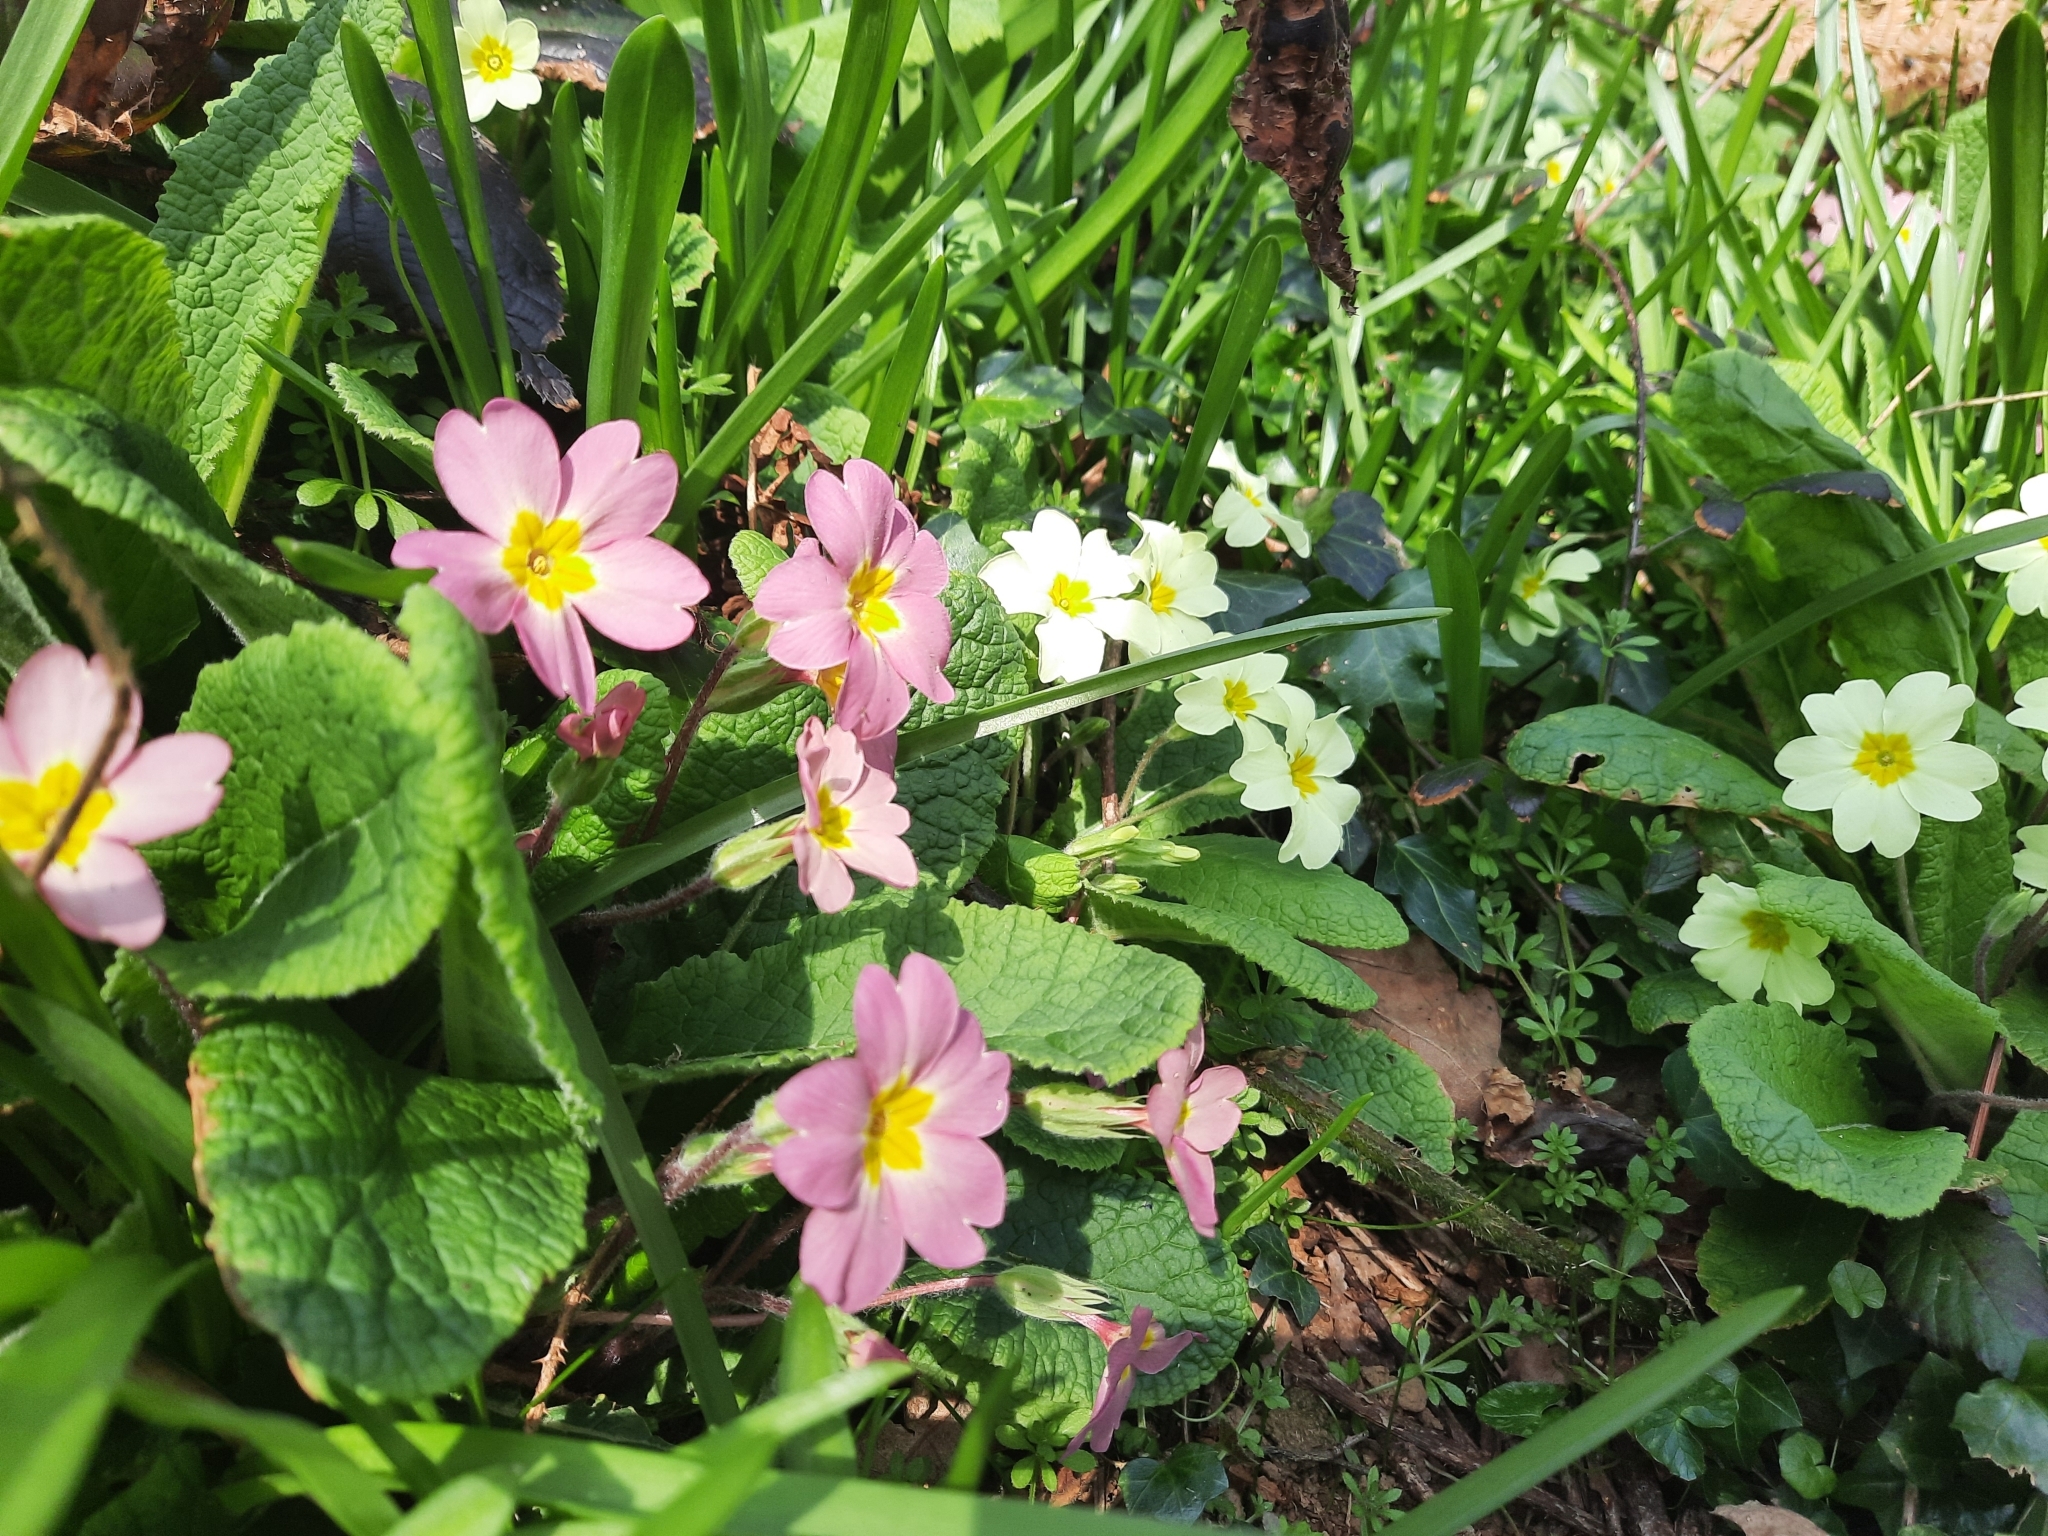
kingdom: Plantae
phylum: Tracheophyta
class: Magnoliopsida
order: Ericales
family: Primulaceae
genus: Primula
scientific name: Primula vulgaris
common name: Primrose
